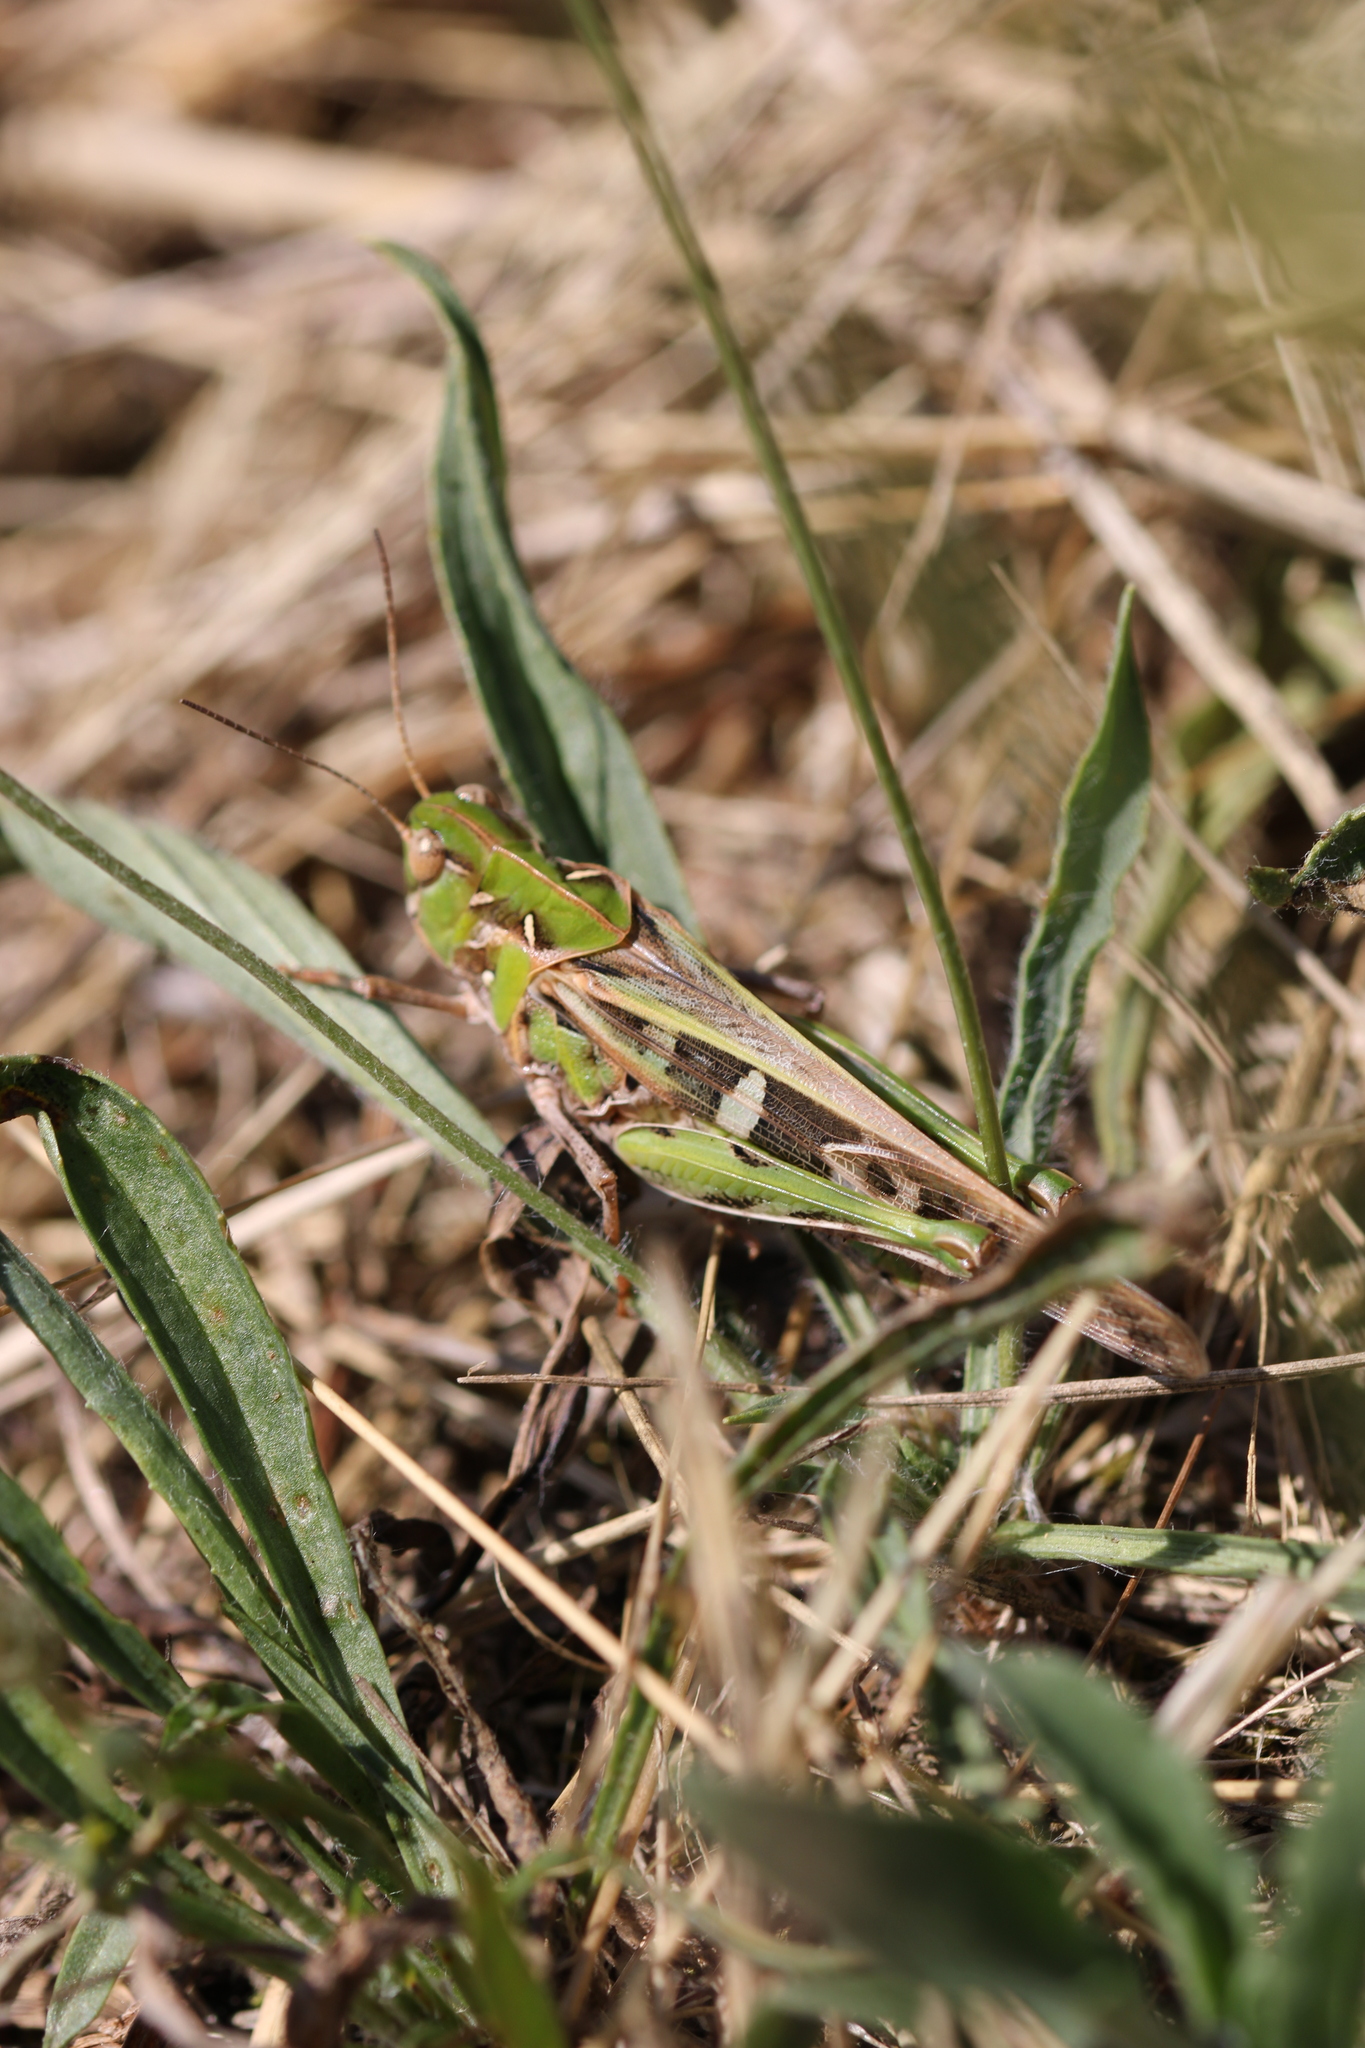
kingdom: Animalia
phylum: Arthropoda
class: Insecta
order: Orthoptera
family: Acrididae
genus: Oedaleus
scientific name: Oedaleus decorus
